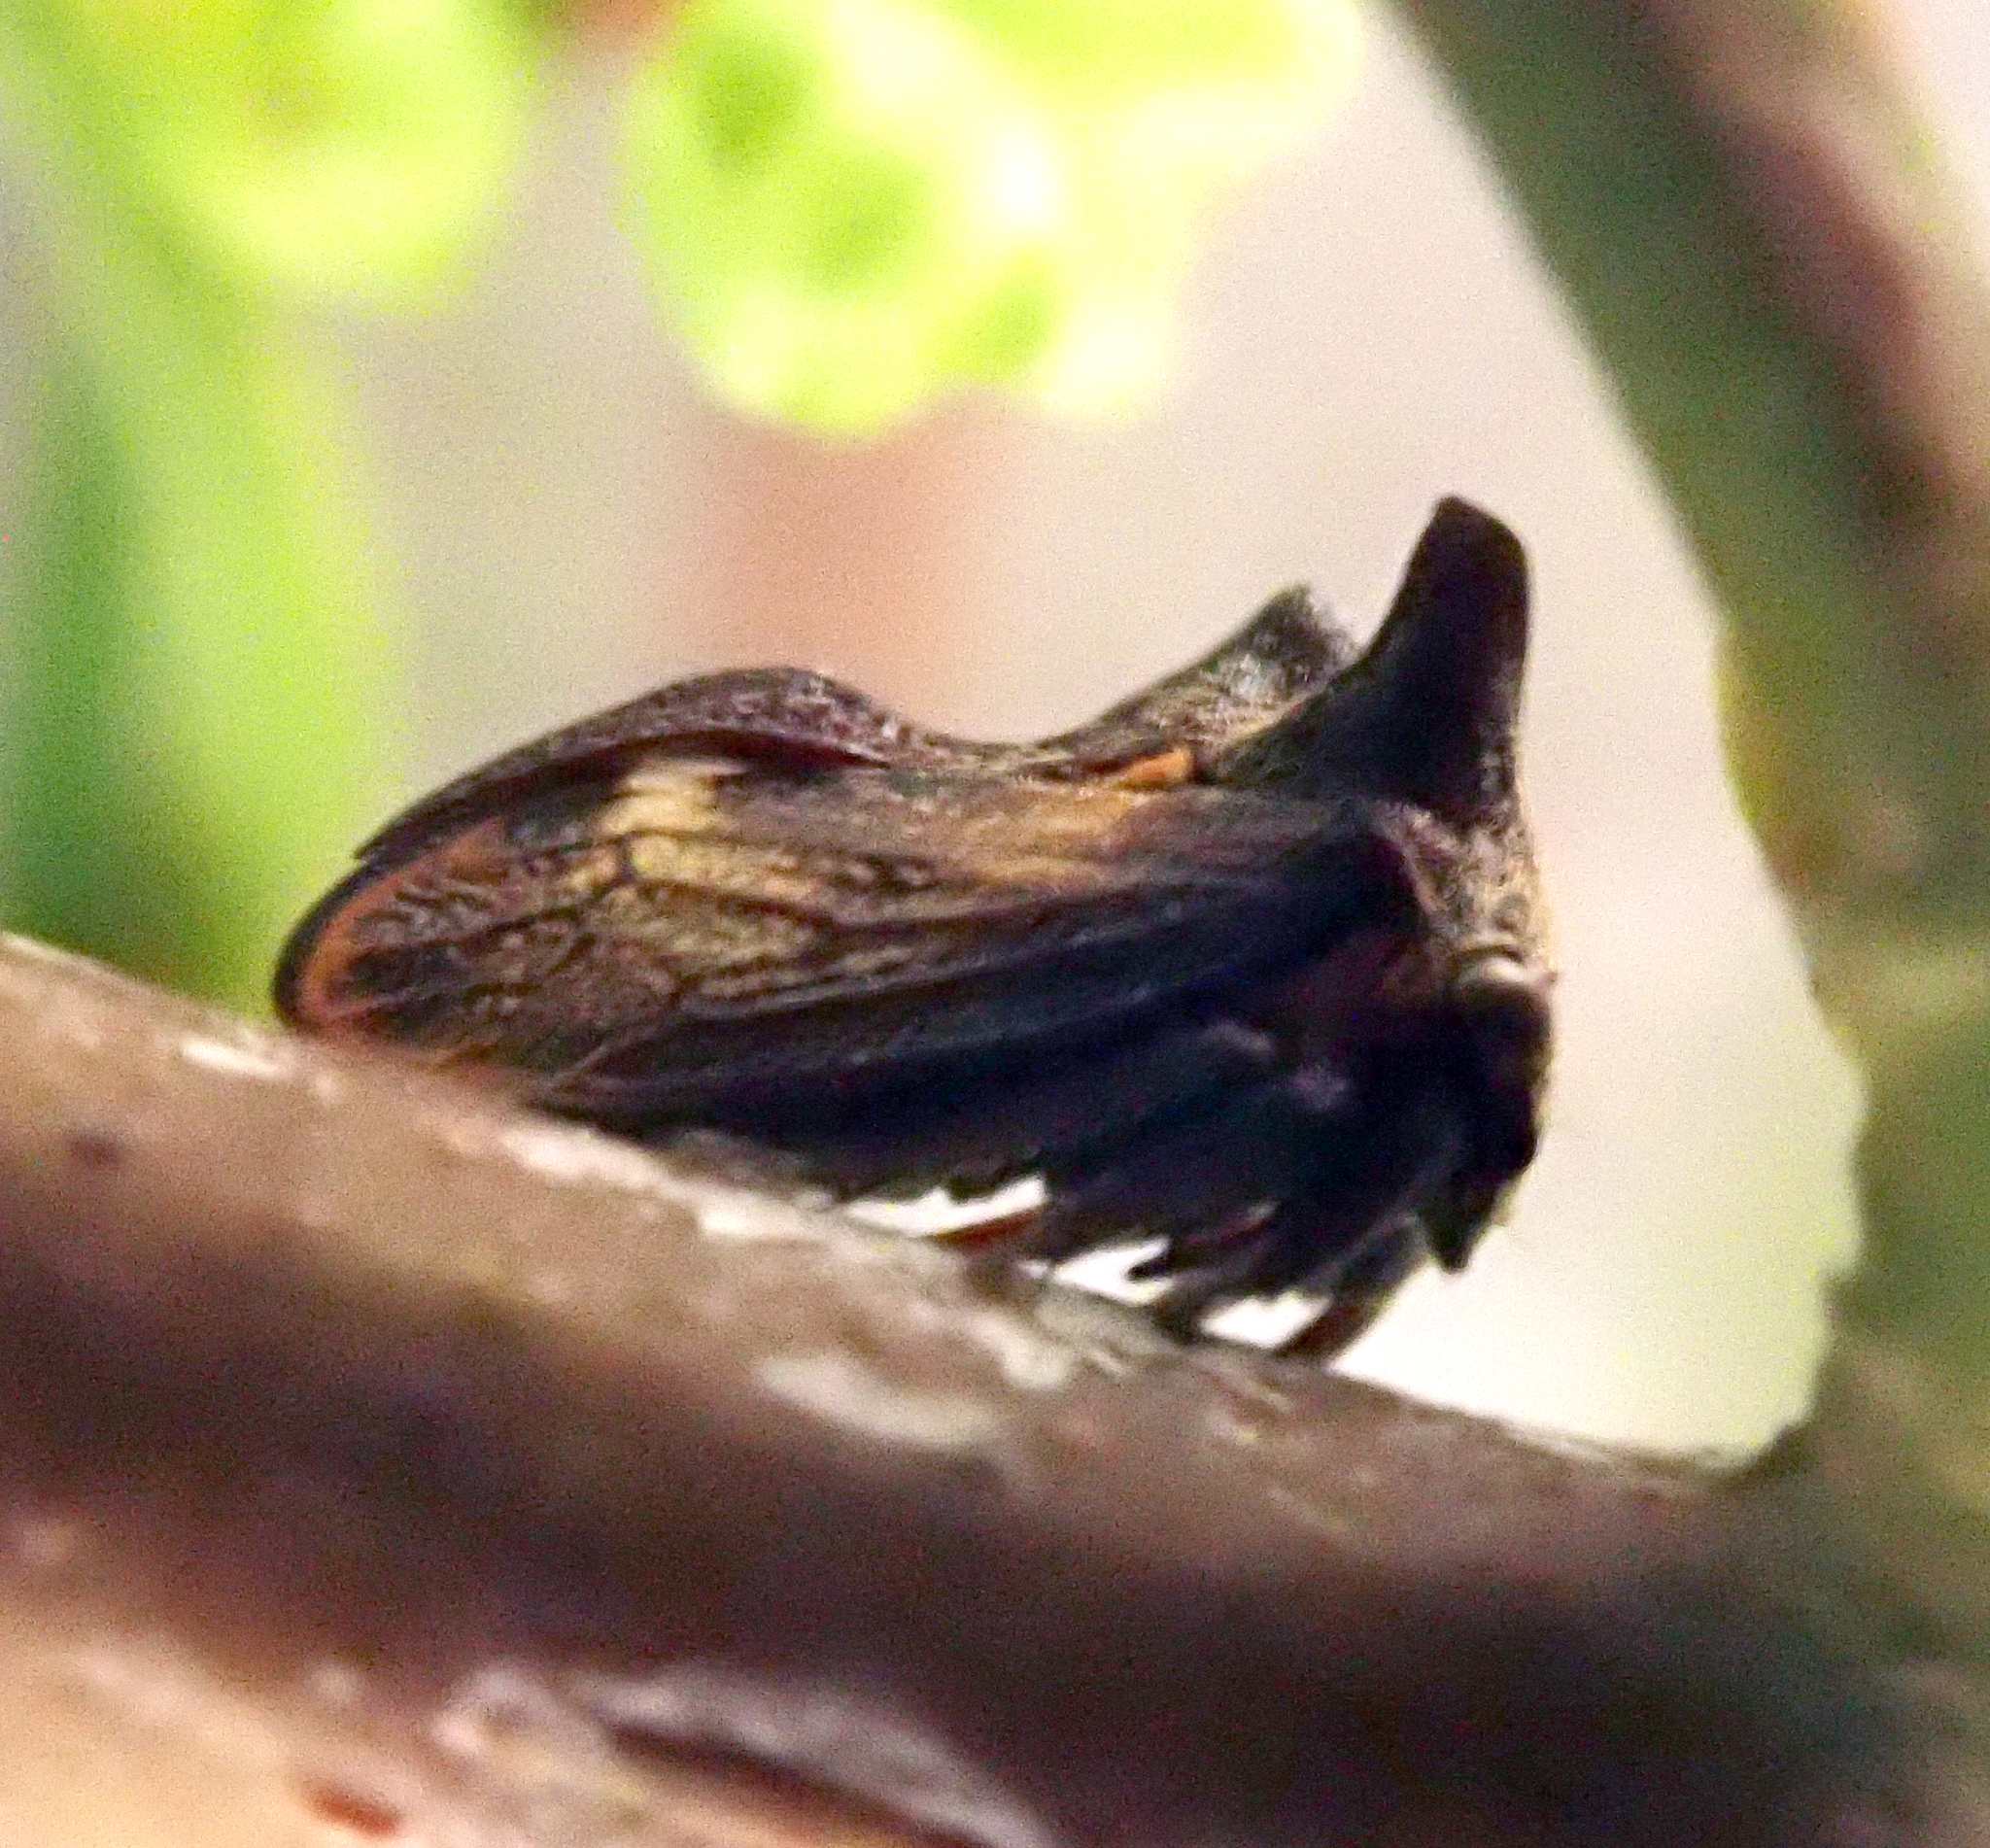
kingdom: Animalia
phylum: Arthropoda
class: Insecta
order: Hemiptera
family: Membracidae
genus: Acanthuchus
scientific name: Acanthuchus trispinifer
